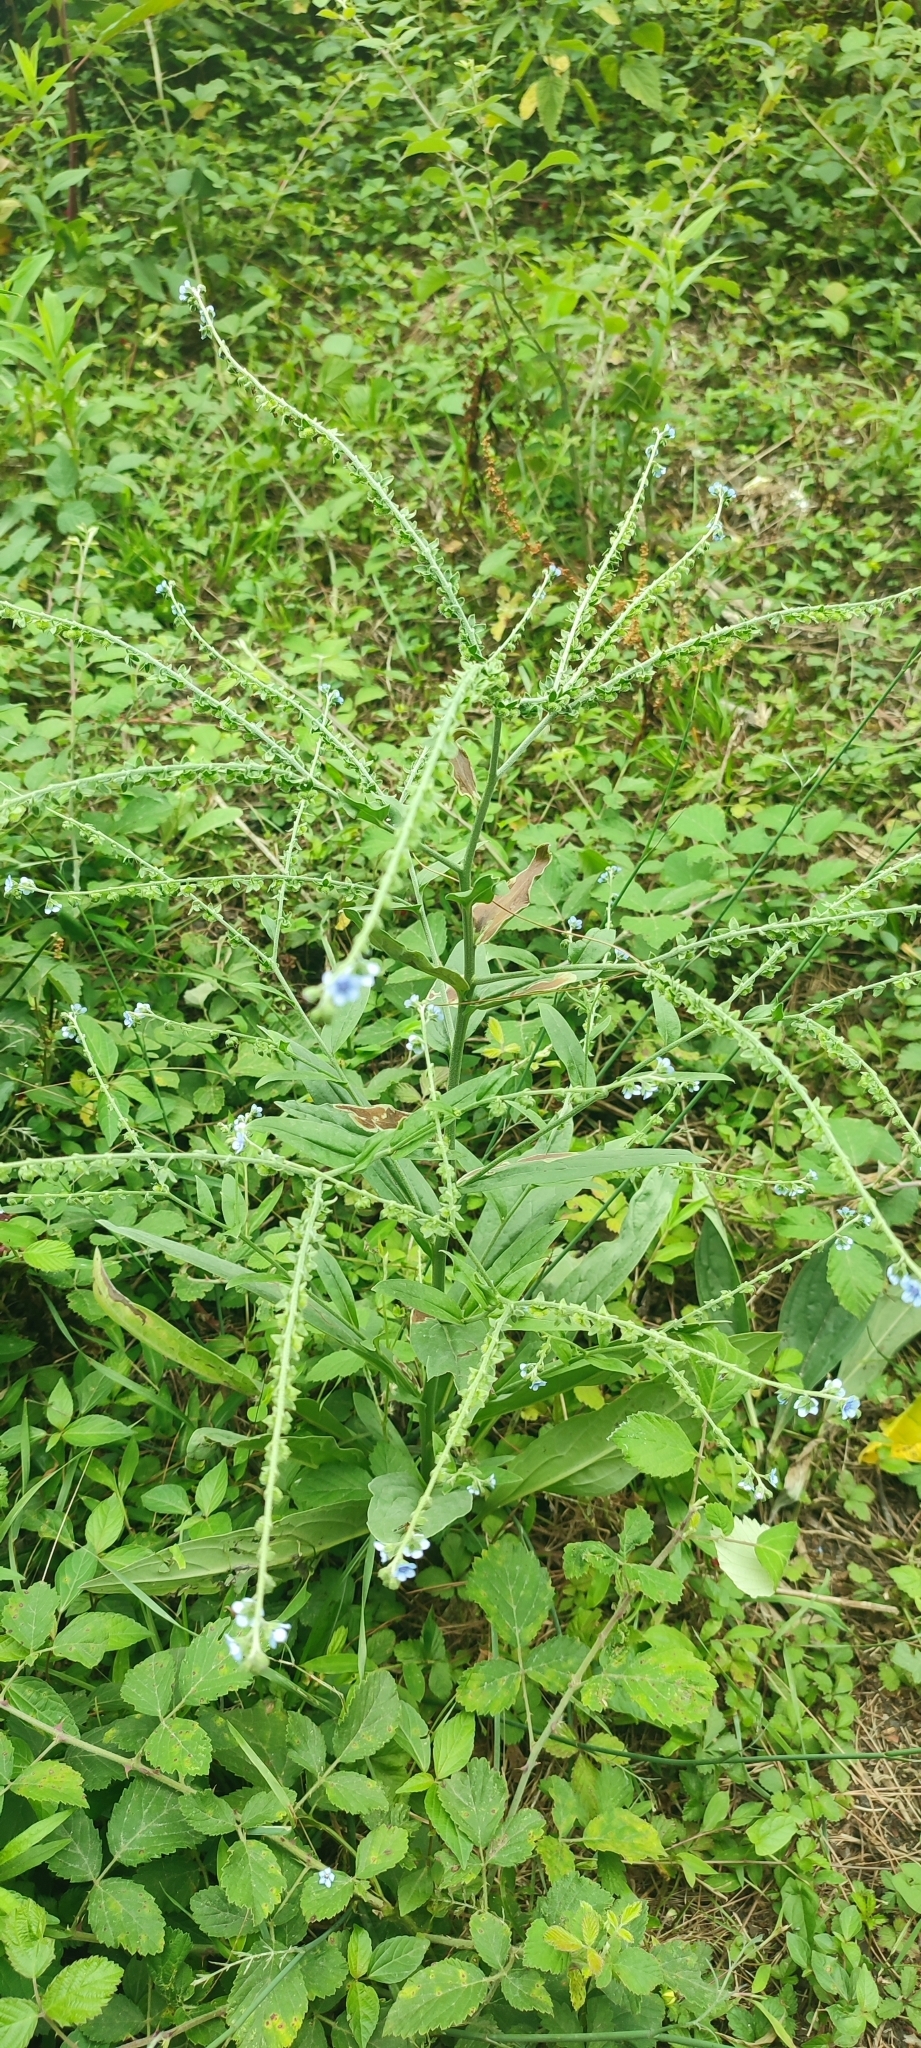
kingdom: Plantae
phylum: Tracheophyta
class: Magnoliopsida
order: Boraginales
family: Boraginaceae
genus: Cynoglossum
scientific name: Cynoglossum creticum
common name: Blue hound's tongue
